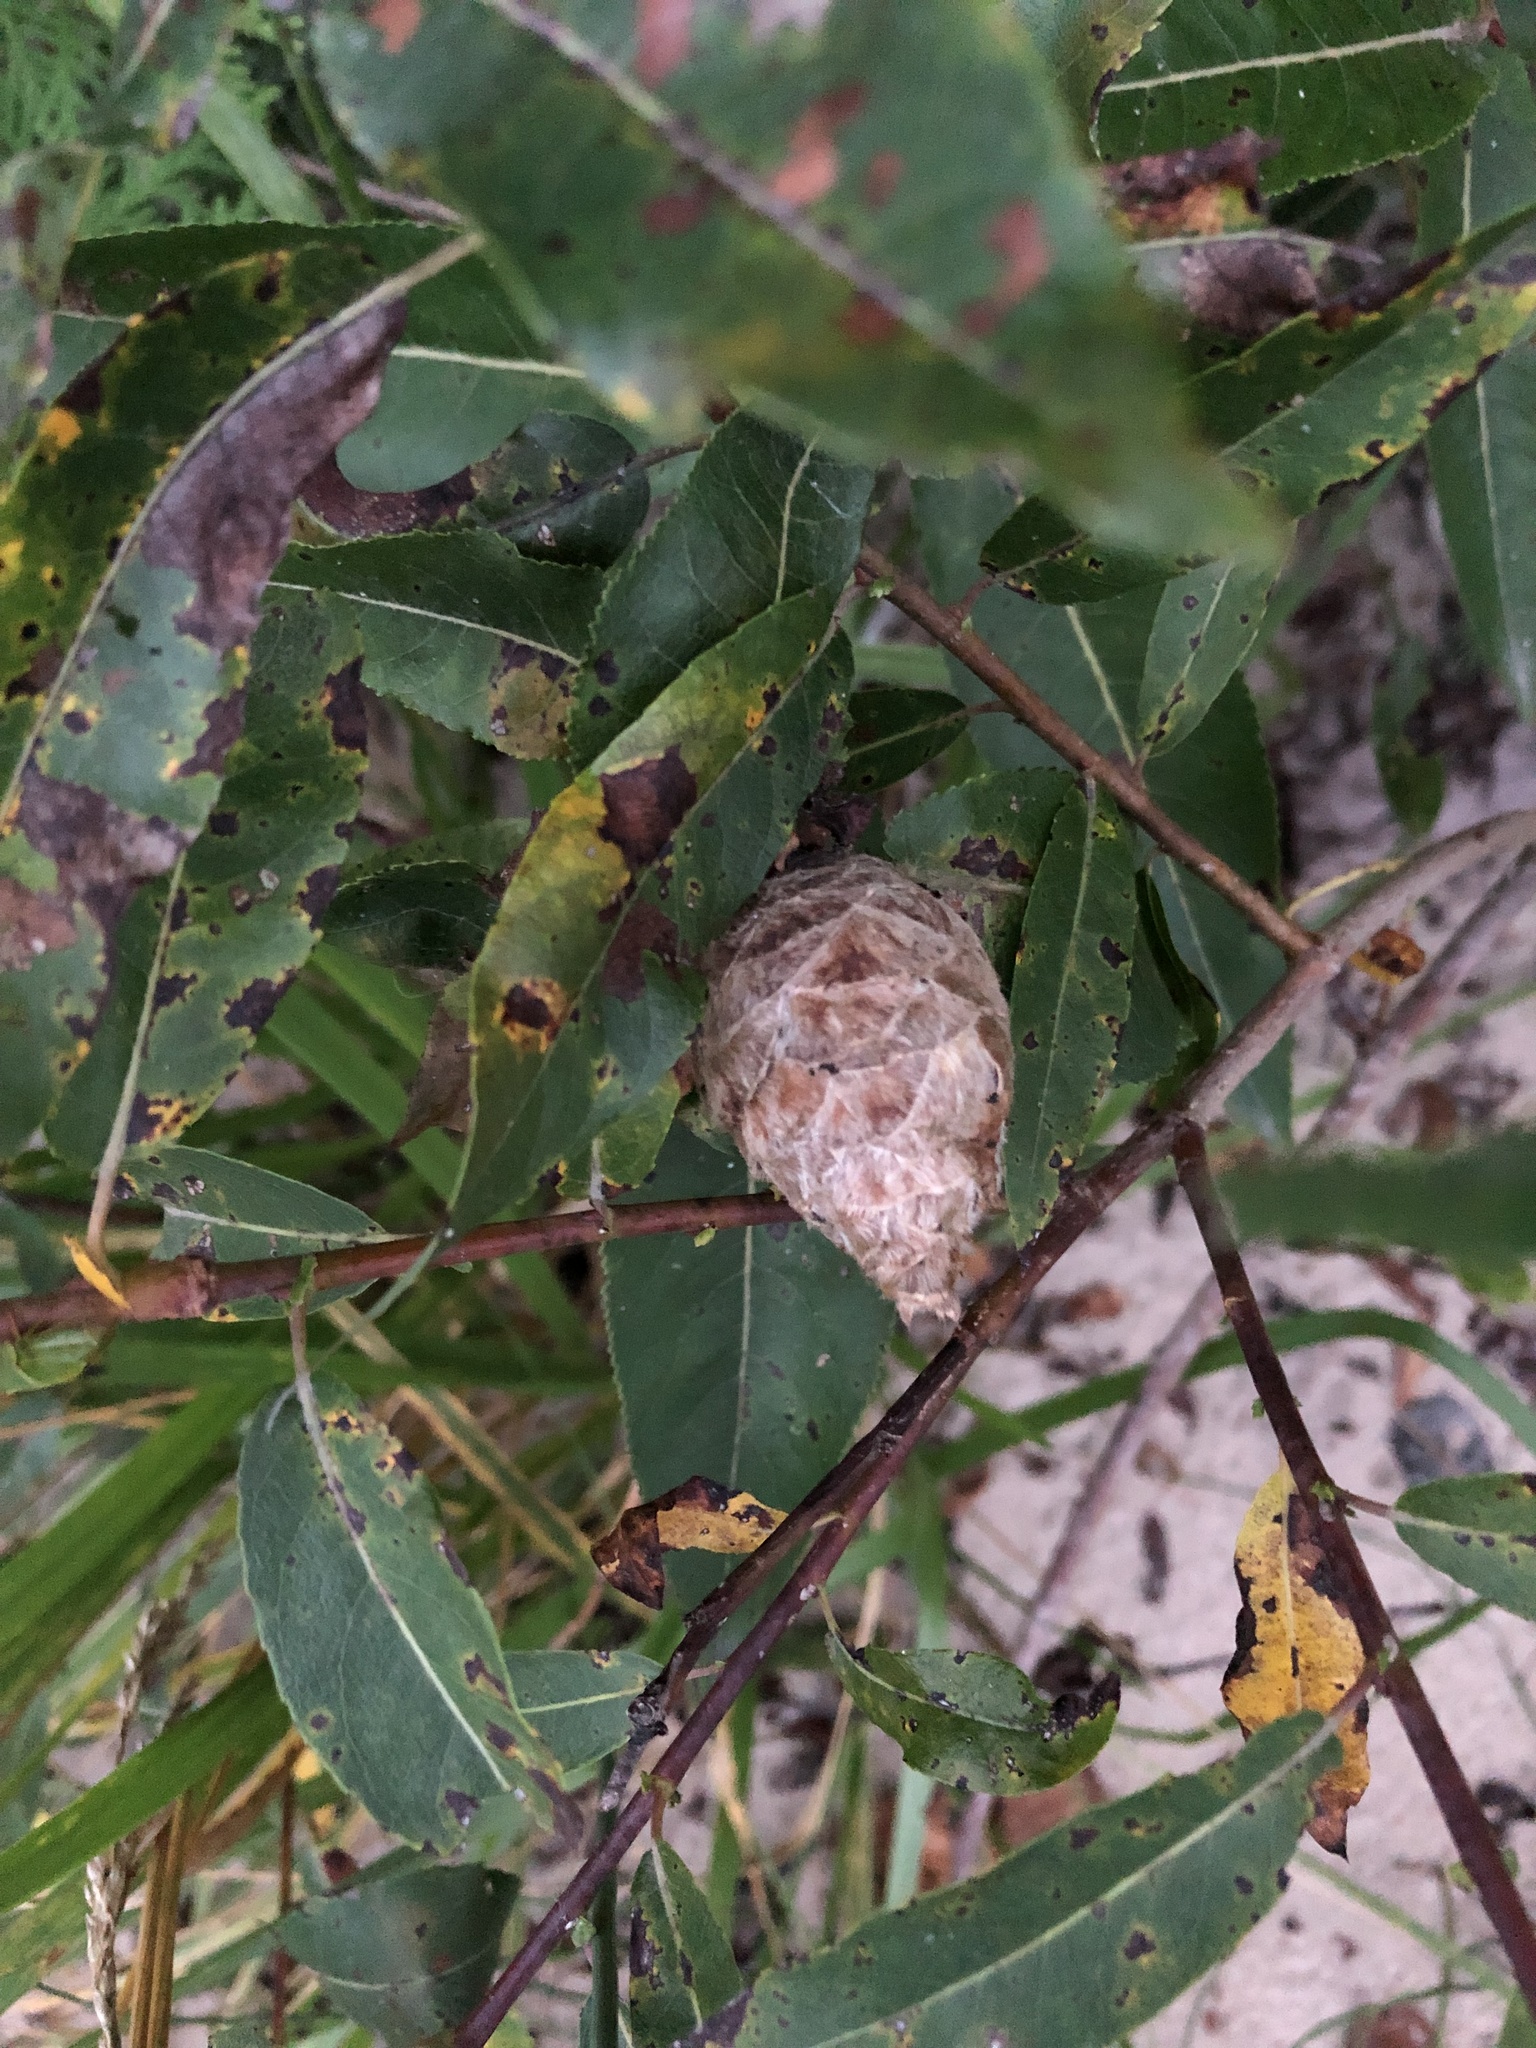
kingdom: Animalia
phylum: Arthropoda
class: Insecta
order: Diptera
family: Cecidomyiidae
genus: Rabdophaga
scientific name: Rabdophaga strobiloides
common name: Willow pinecone gall midge
